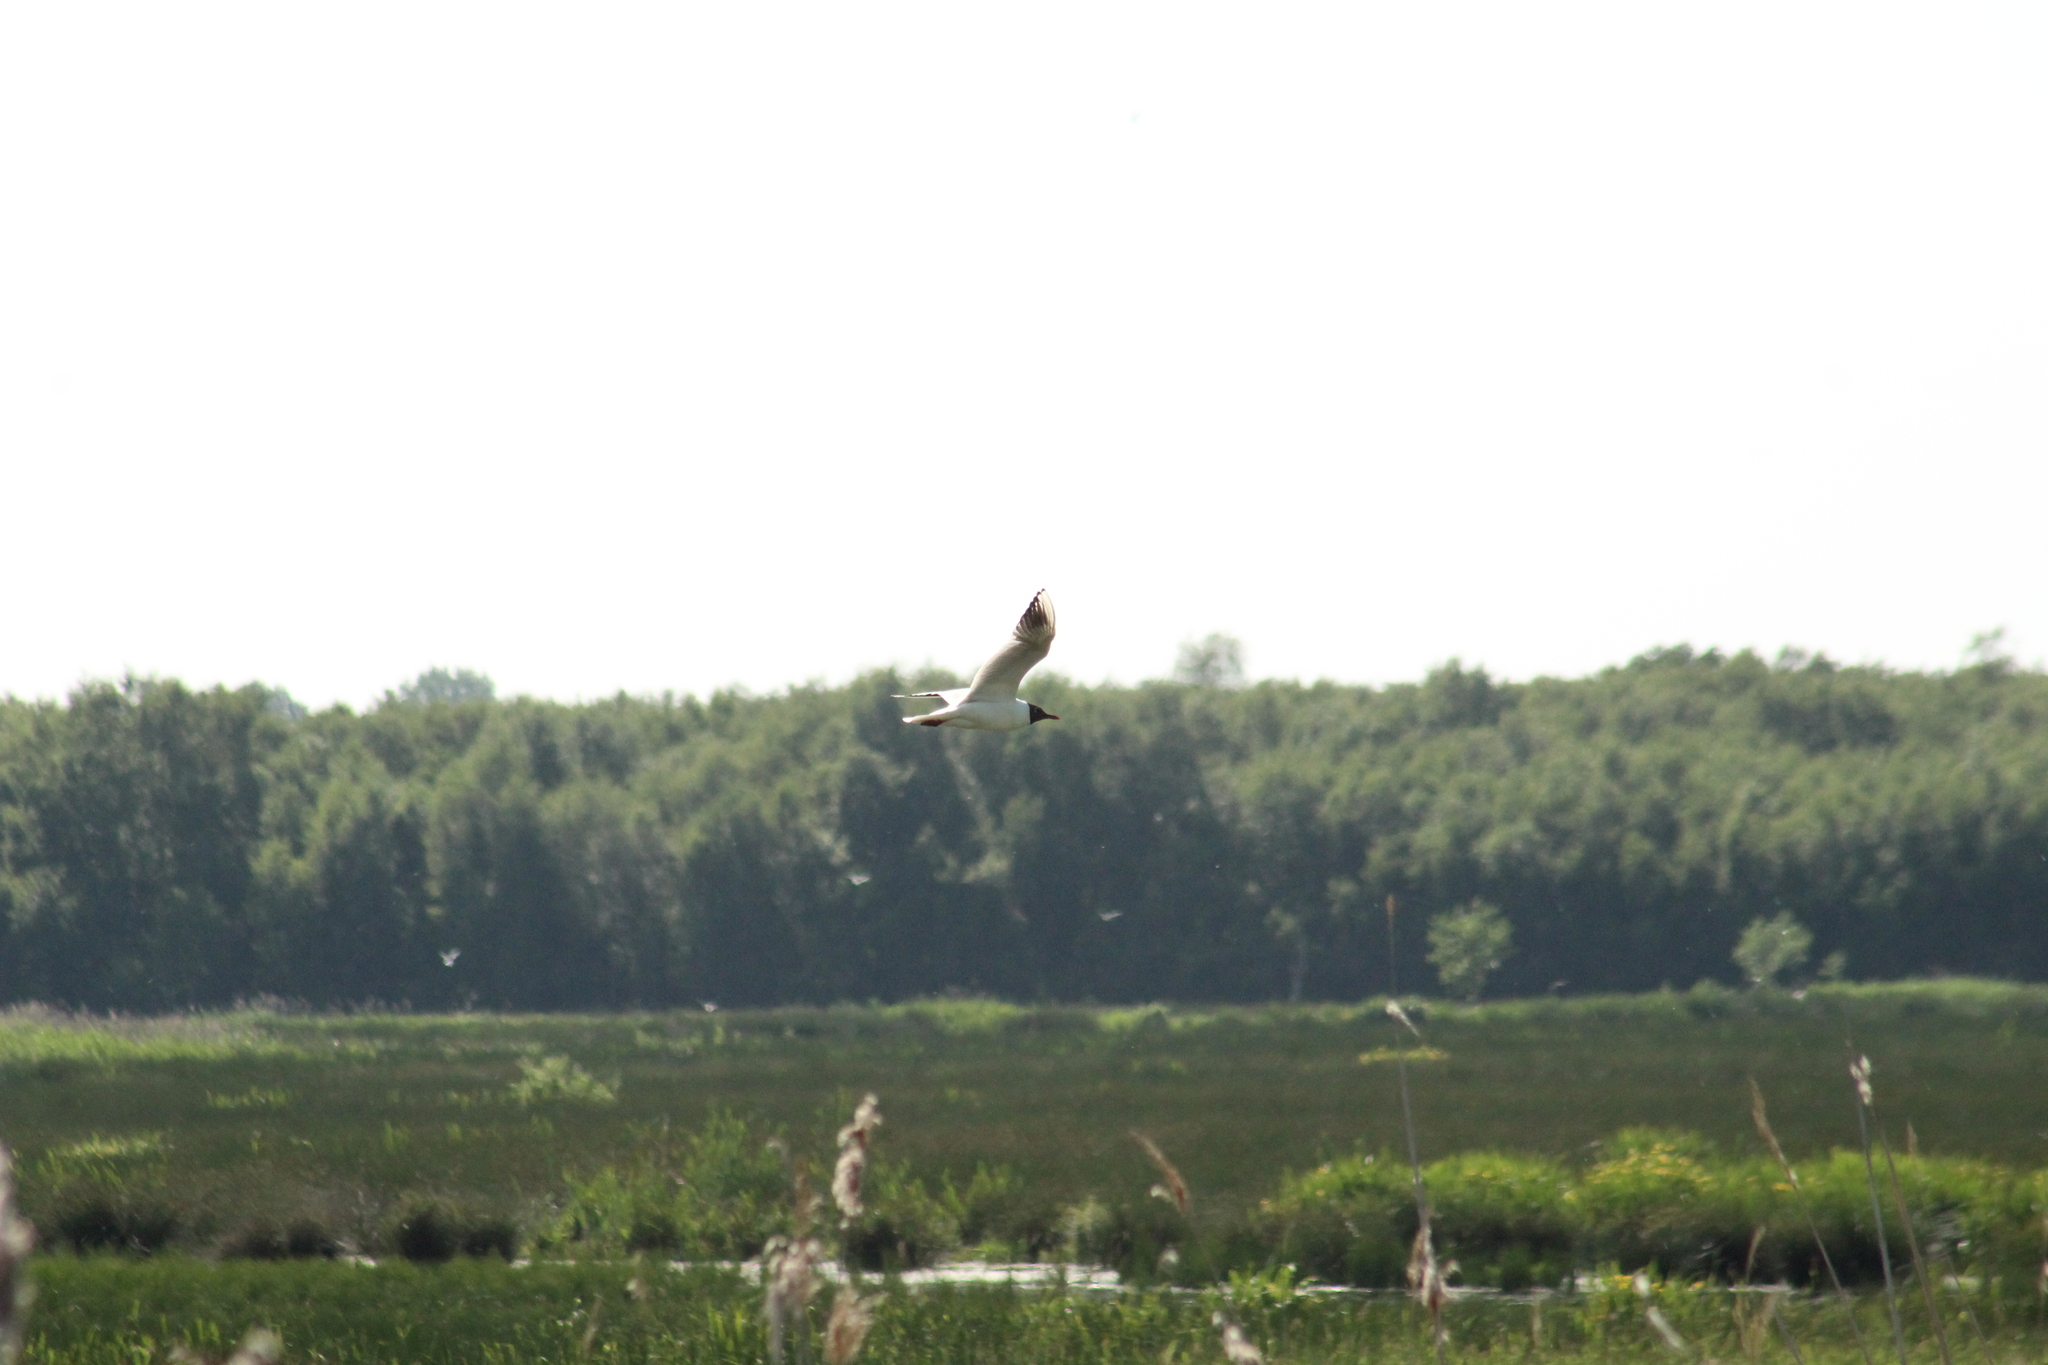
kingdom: Animalia
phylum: Chordata
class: Aves
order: Charadriiformes
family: Laridae
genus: Chroicocephalus
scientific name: Chroicocephalus ridibundus
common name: Black-headed gull
